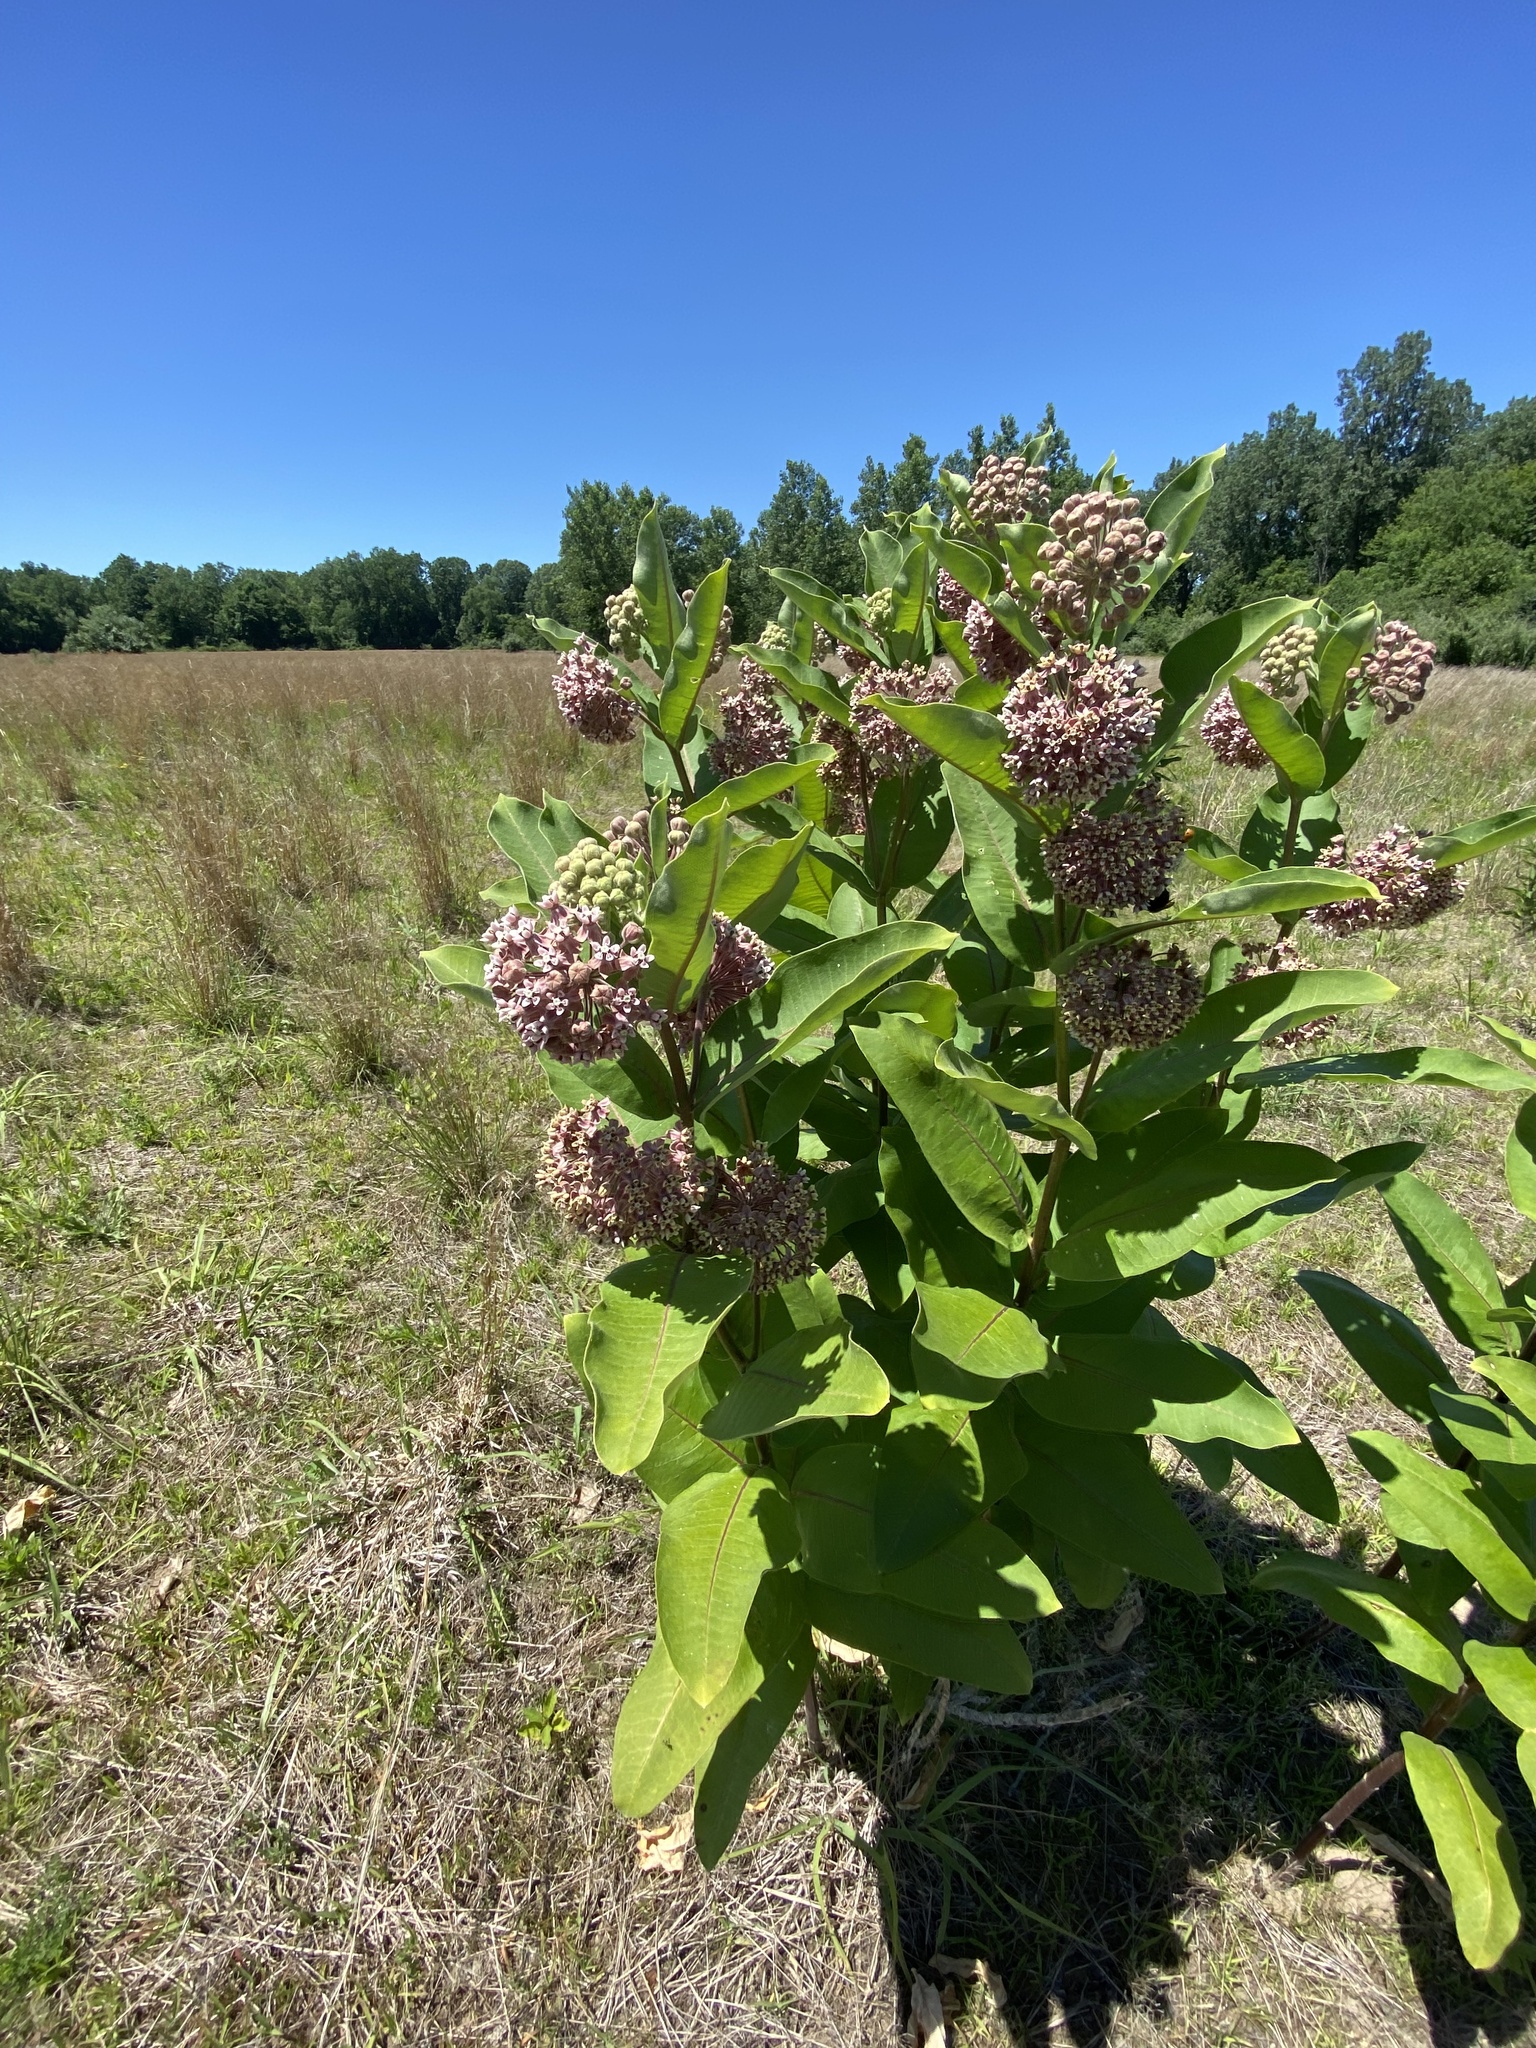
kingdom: Plantae
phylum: Tracheophyta
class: Magnoliopsida
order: Gentianales
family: Apocynaceae
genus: Asclepias
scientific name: Asclepias syriaca
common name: Common milkweed
